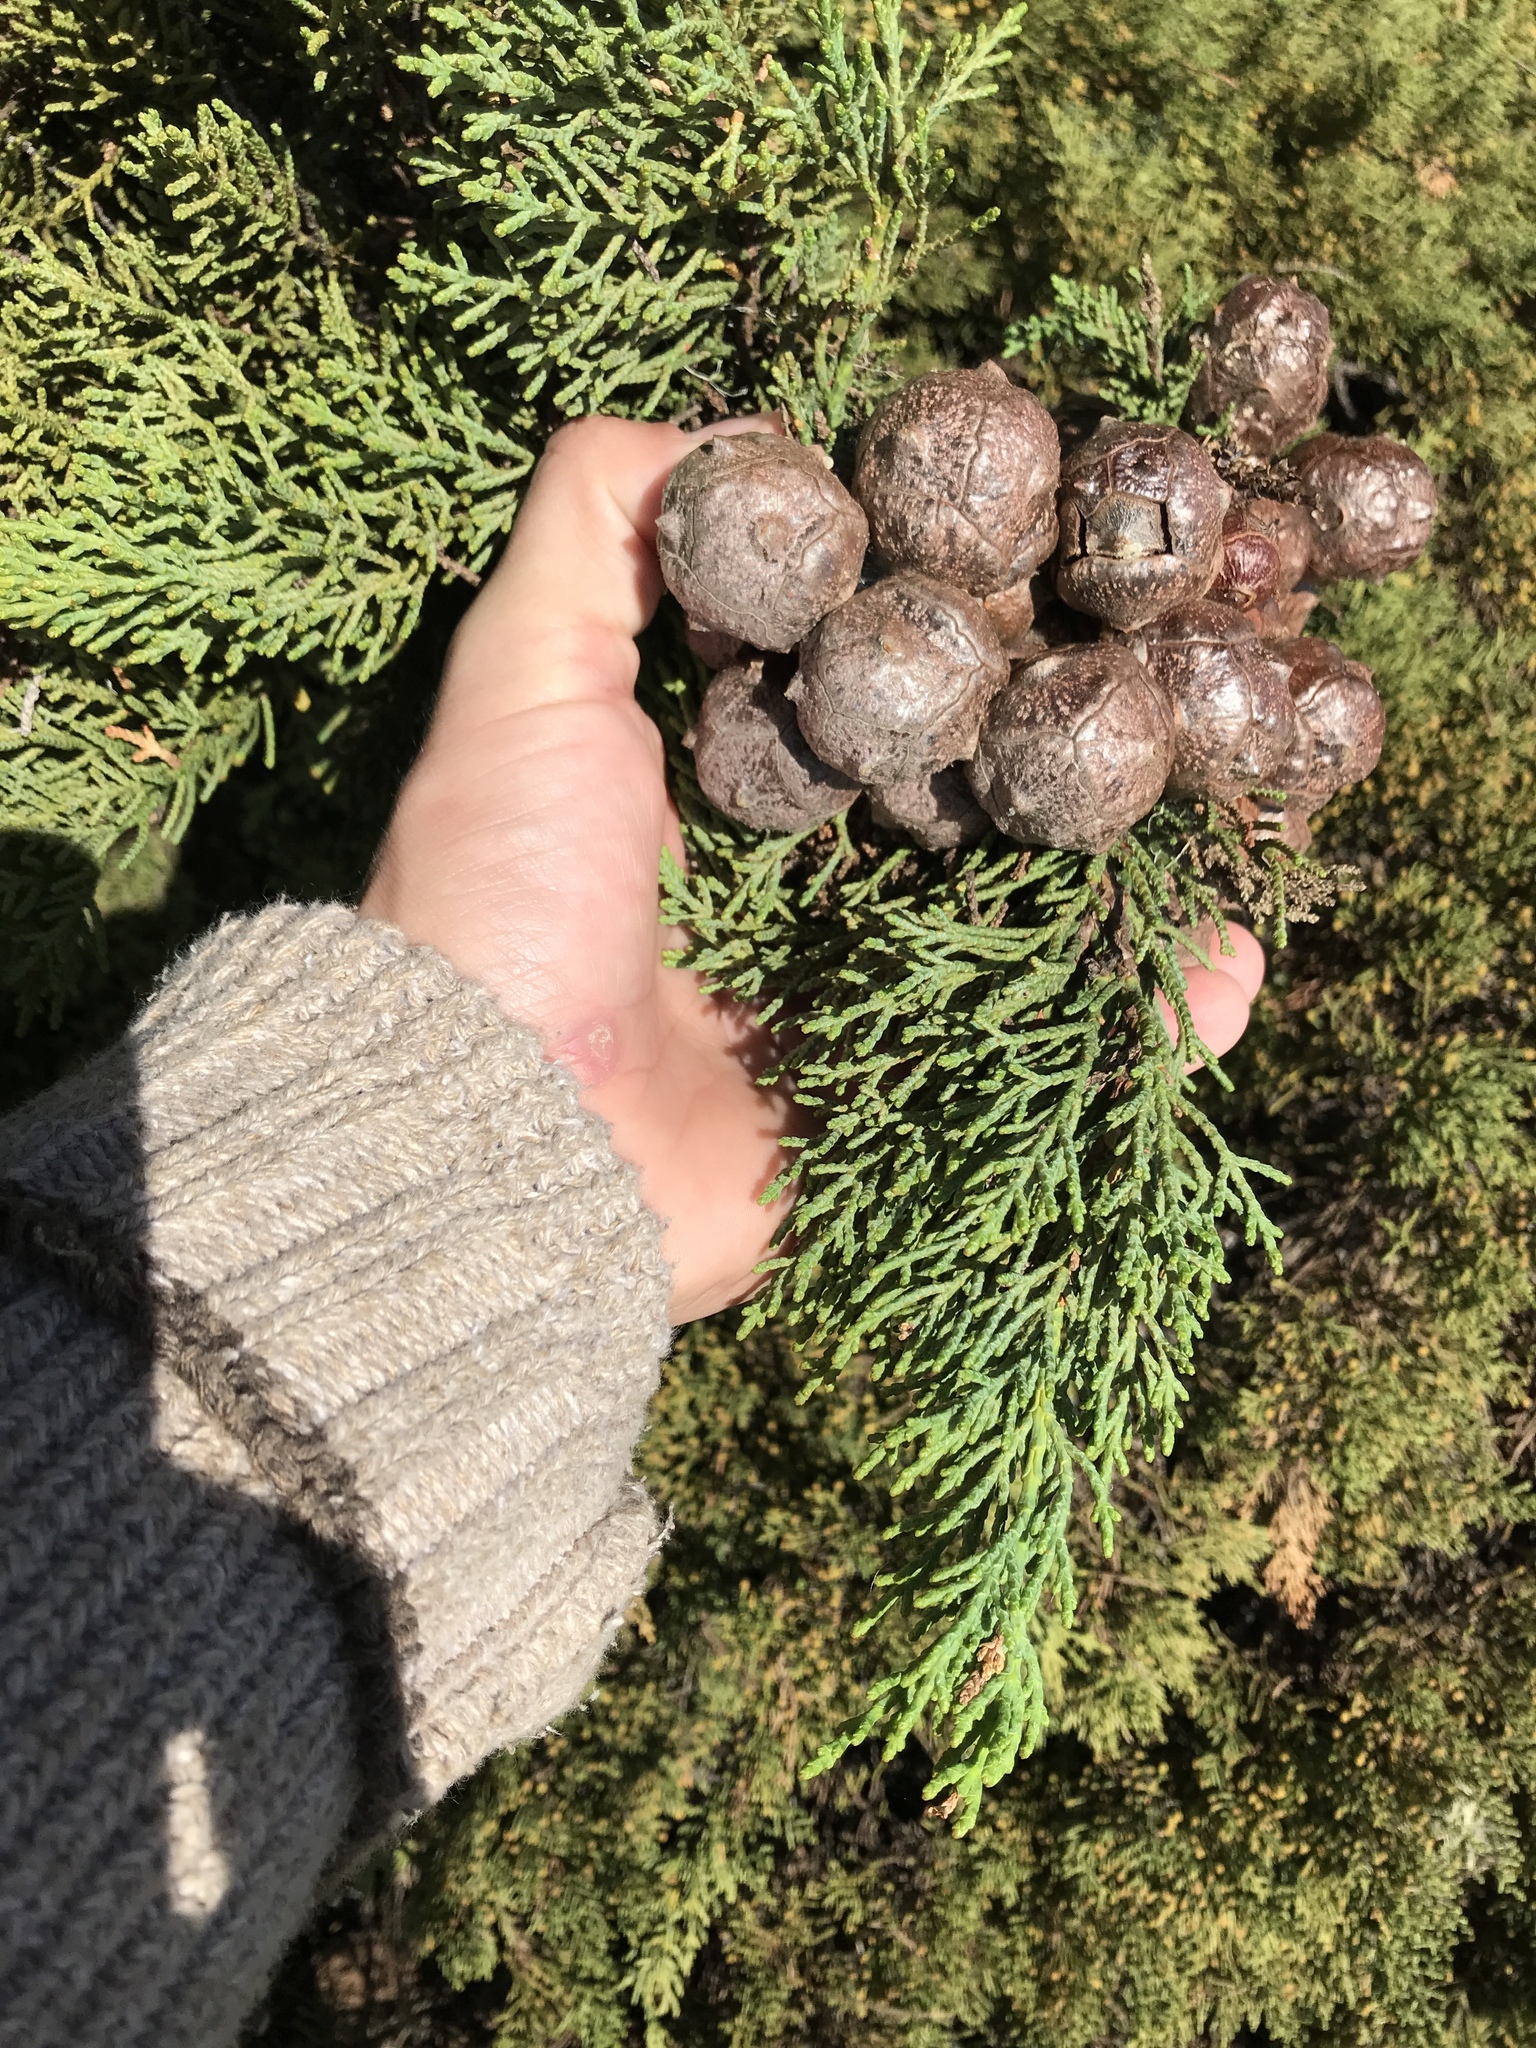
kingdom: Plantae
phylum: Tracheophyta
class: Pinopsida
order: Pinales
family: Cupressaceae
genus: Cupressus
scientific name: Cupressus macrocarpa
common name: Monterey cypress
